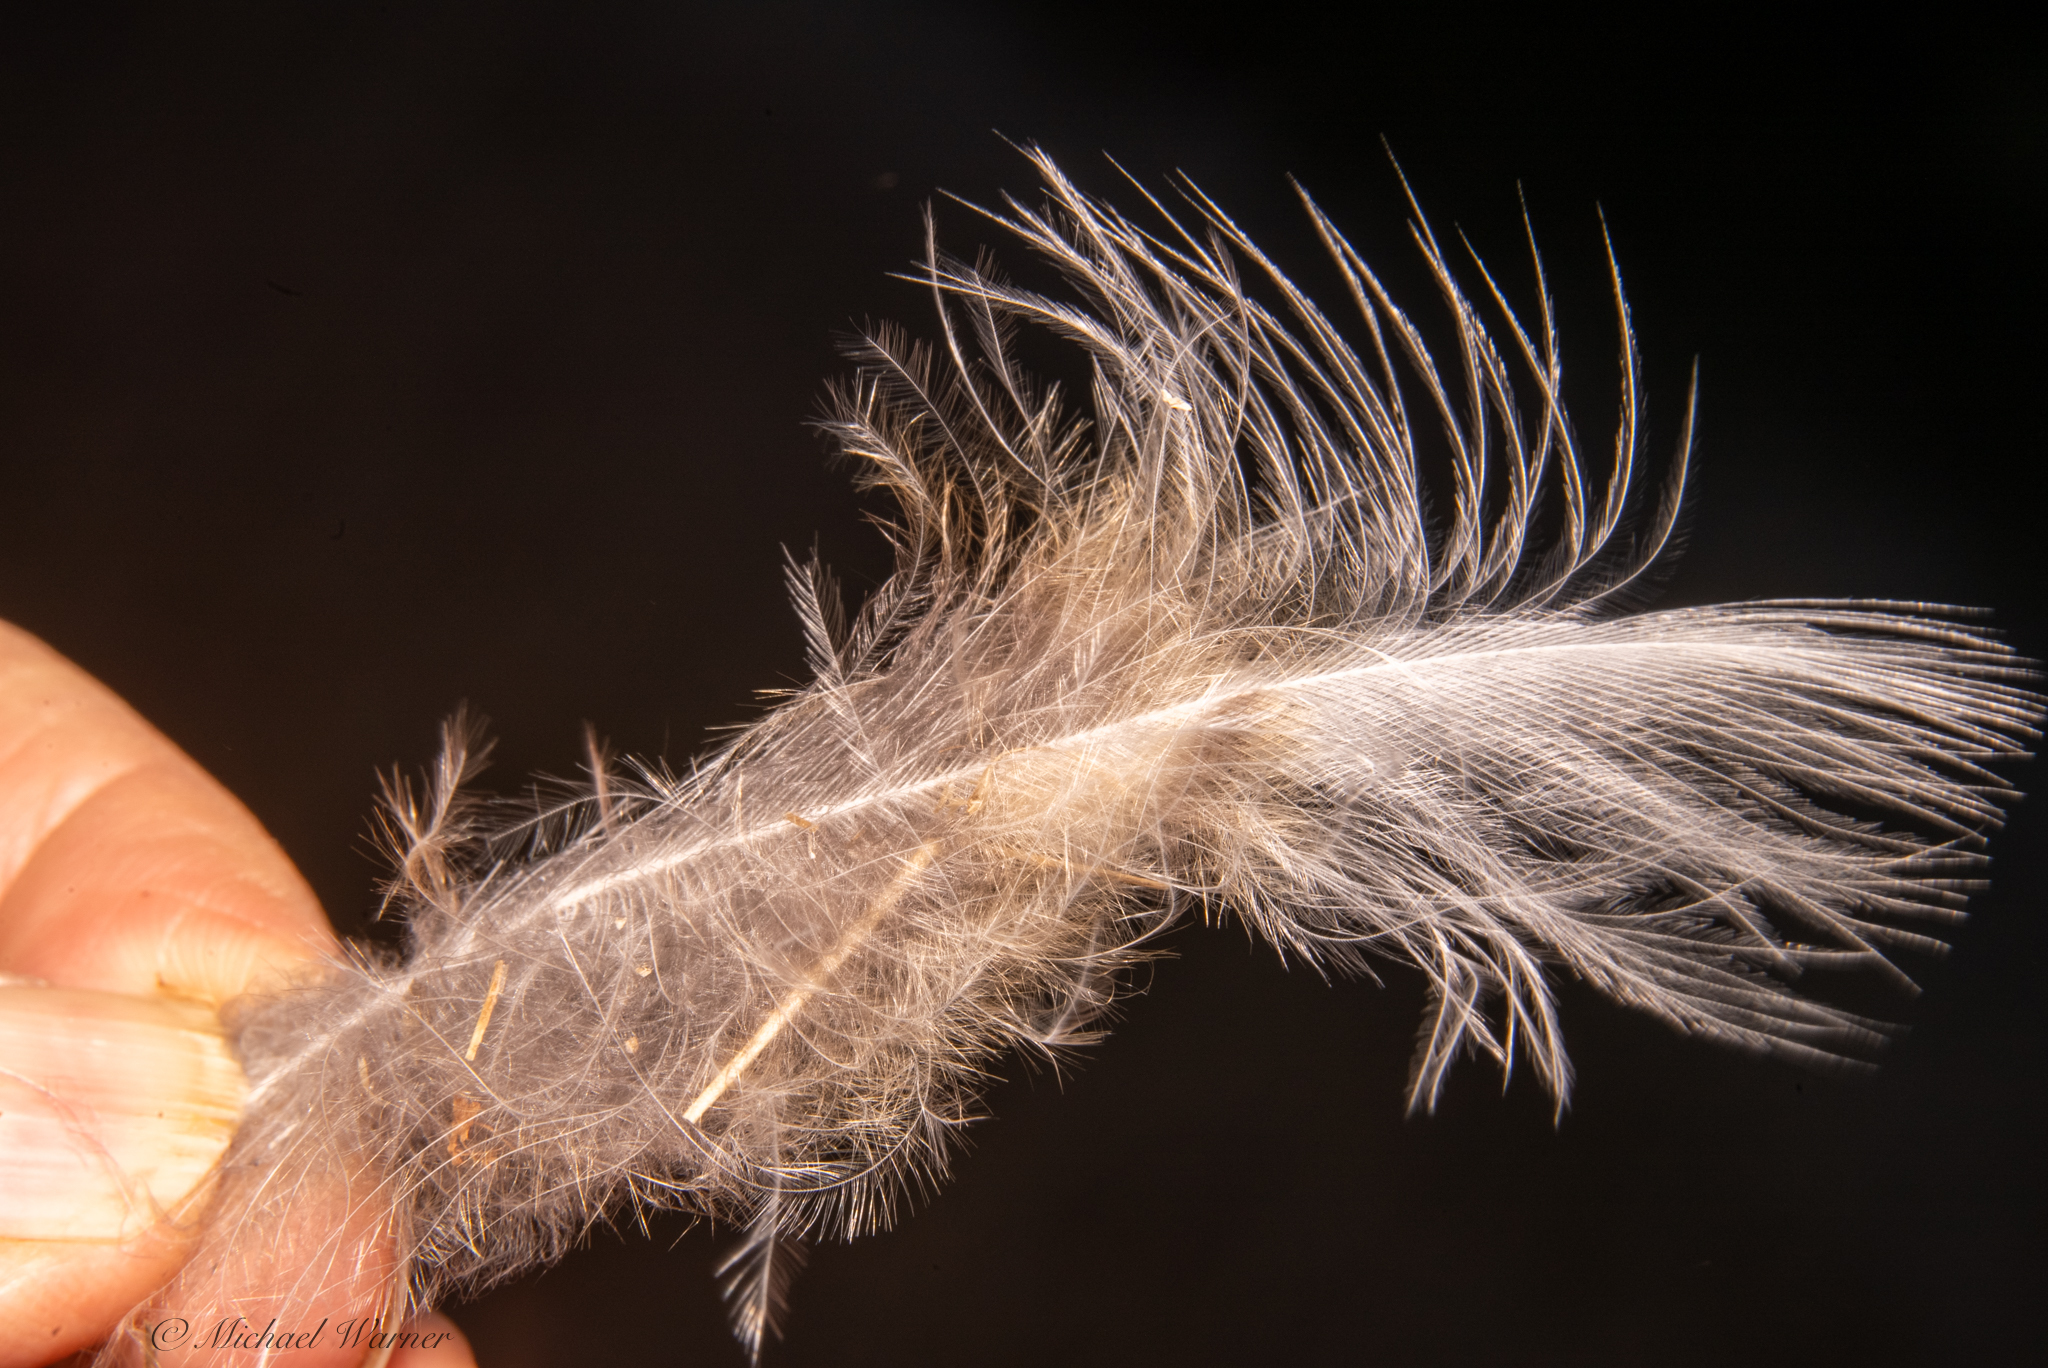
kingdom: Animalia
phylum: Chordata
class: Aves
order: Strigiformes
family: Strigidae
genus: Bubo
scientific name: Bubo virginianus
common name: Great horned owl
